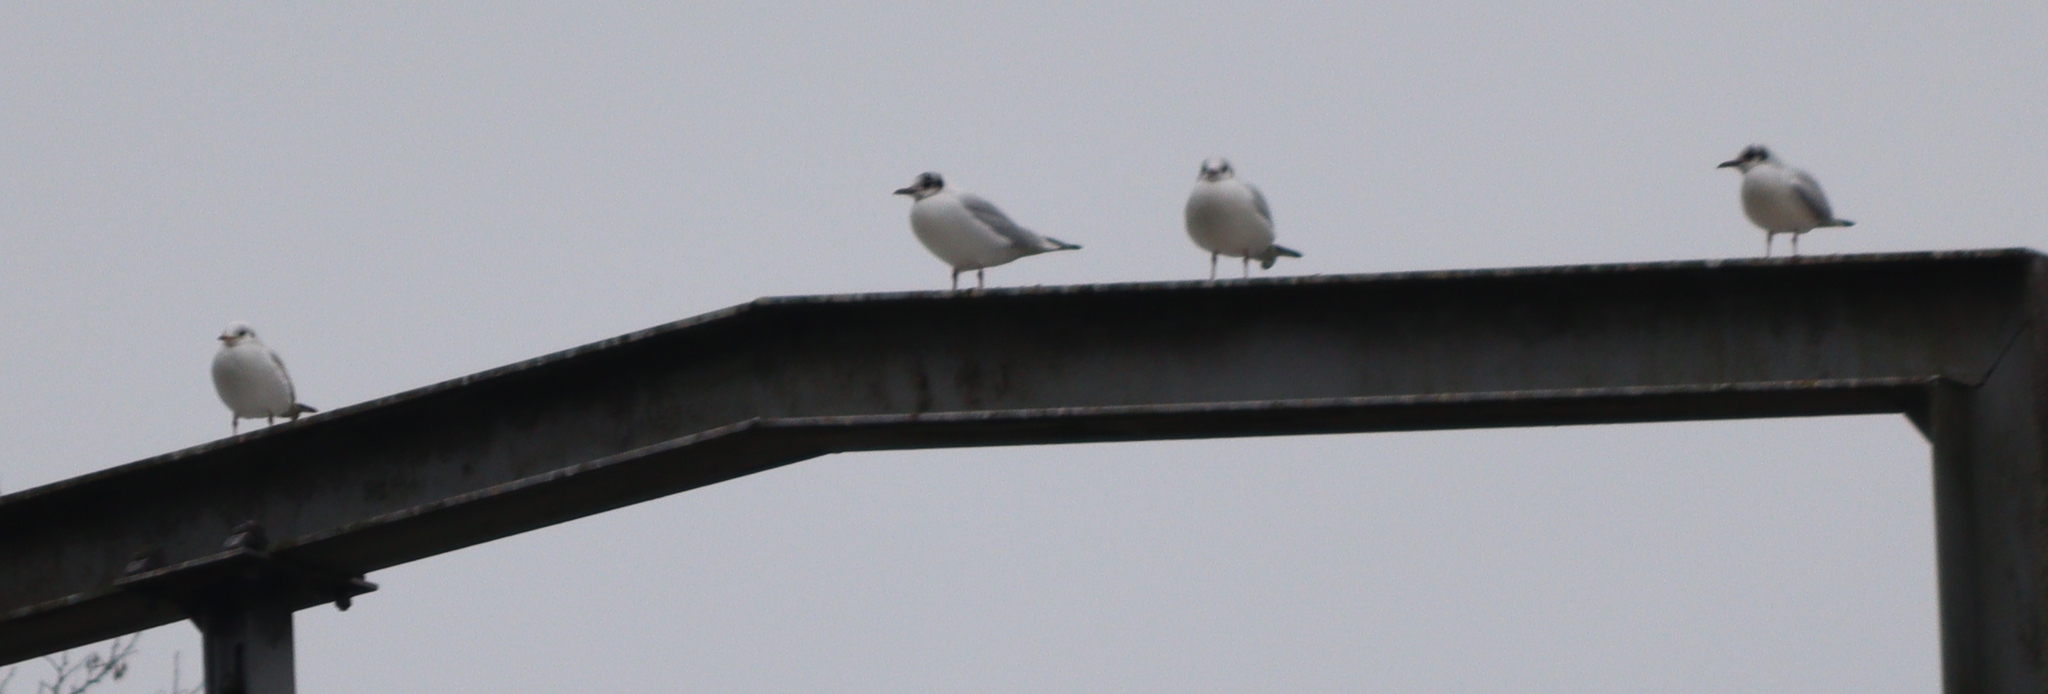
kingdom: Animalia
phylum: Chordata
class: Aves
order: Charadriiformes
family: Laridae
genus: Chroicocephalus
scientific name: Chroicocephalus ridibundus
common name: Black-headed gull
